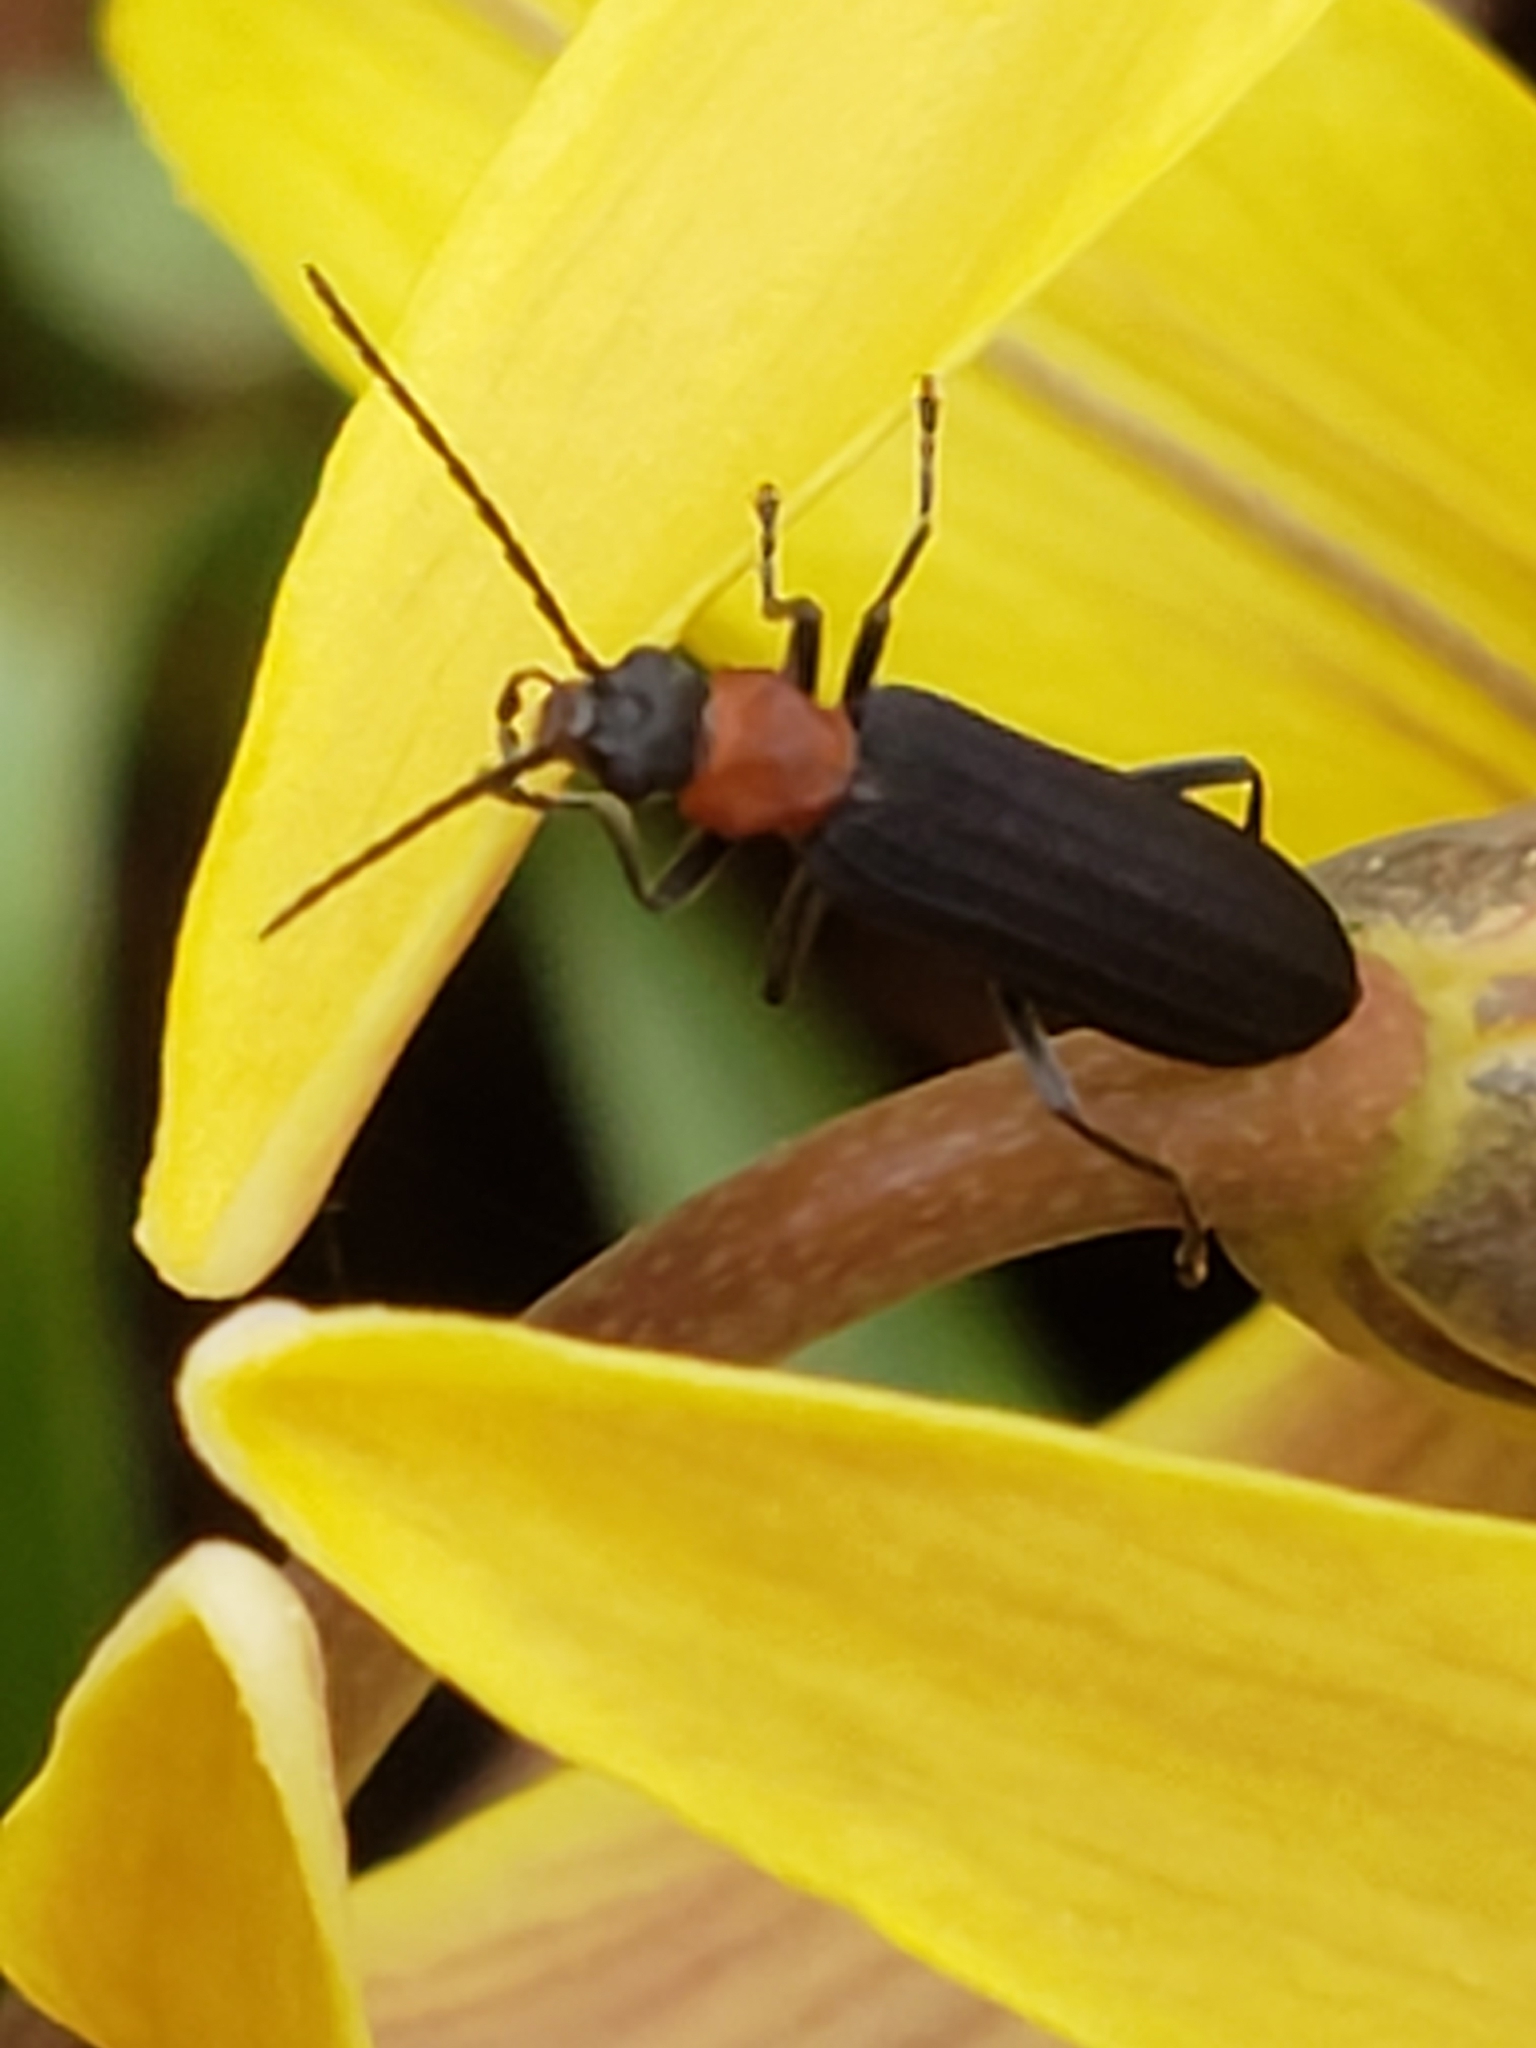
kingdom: Animalia
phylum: Arthropoda
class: Insecta
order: Coleoptera
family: Oedemeridae
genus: Ischnomera
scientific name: Ischnomera
